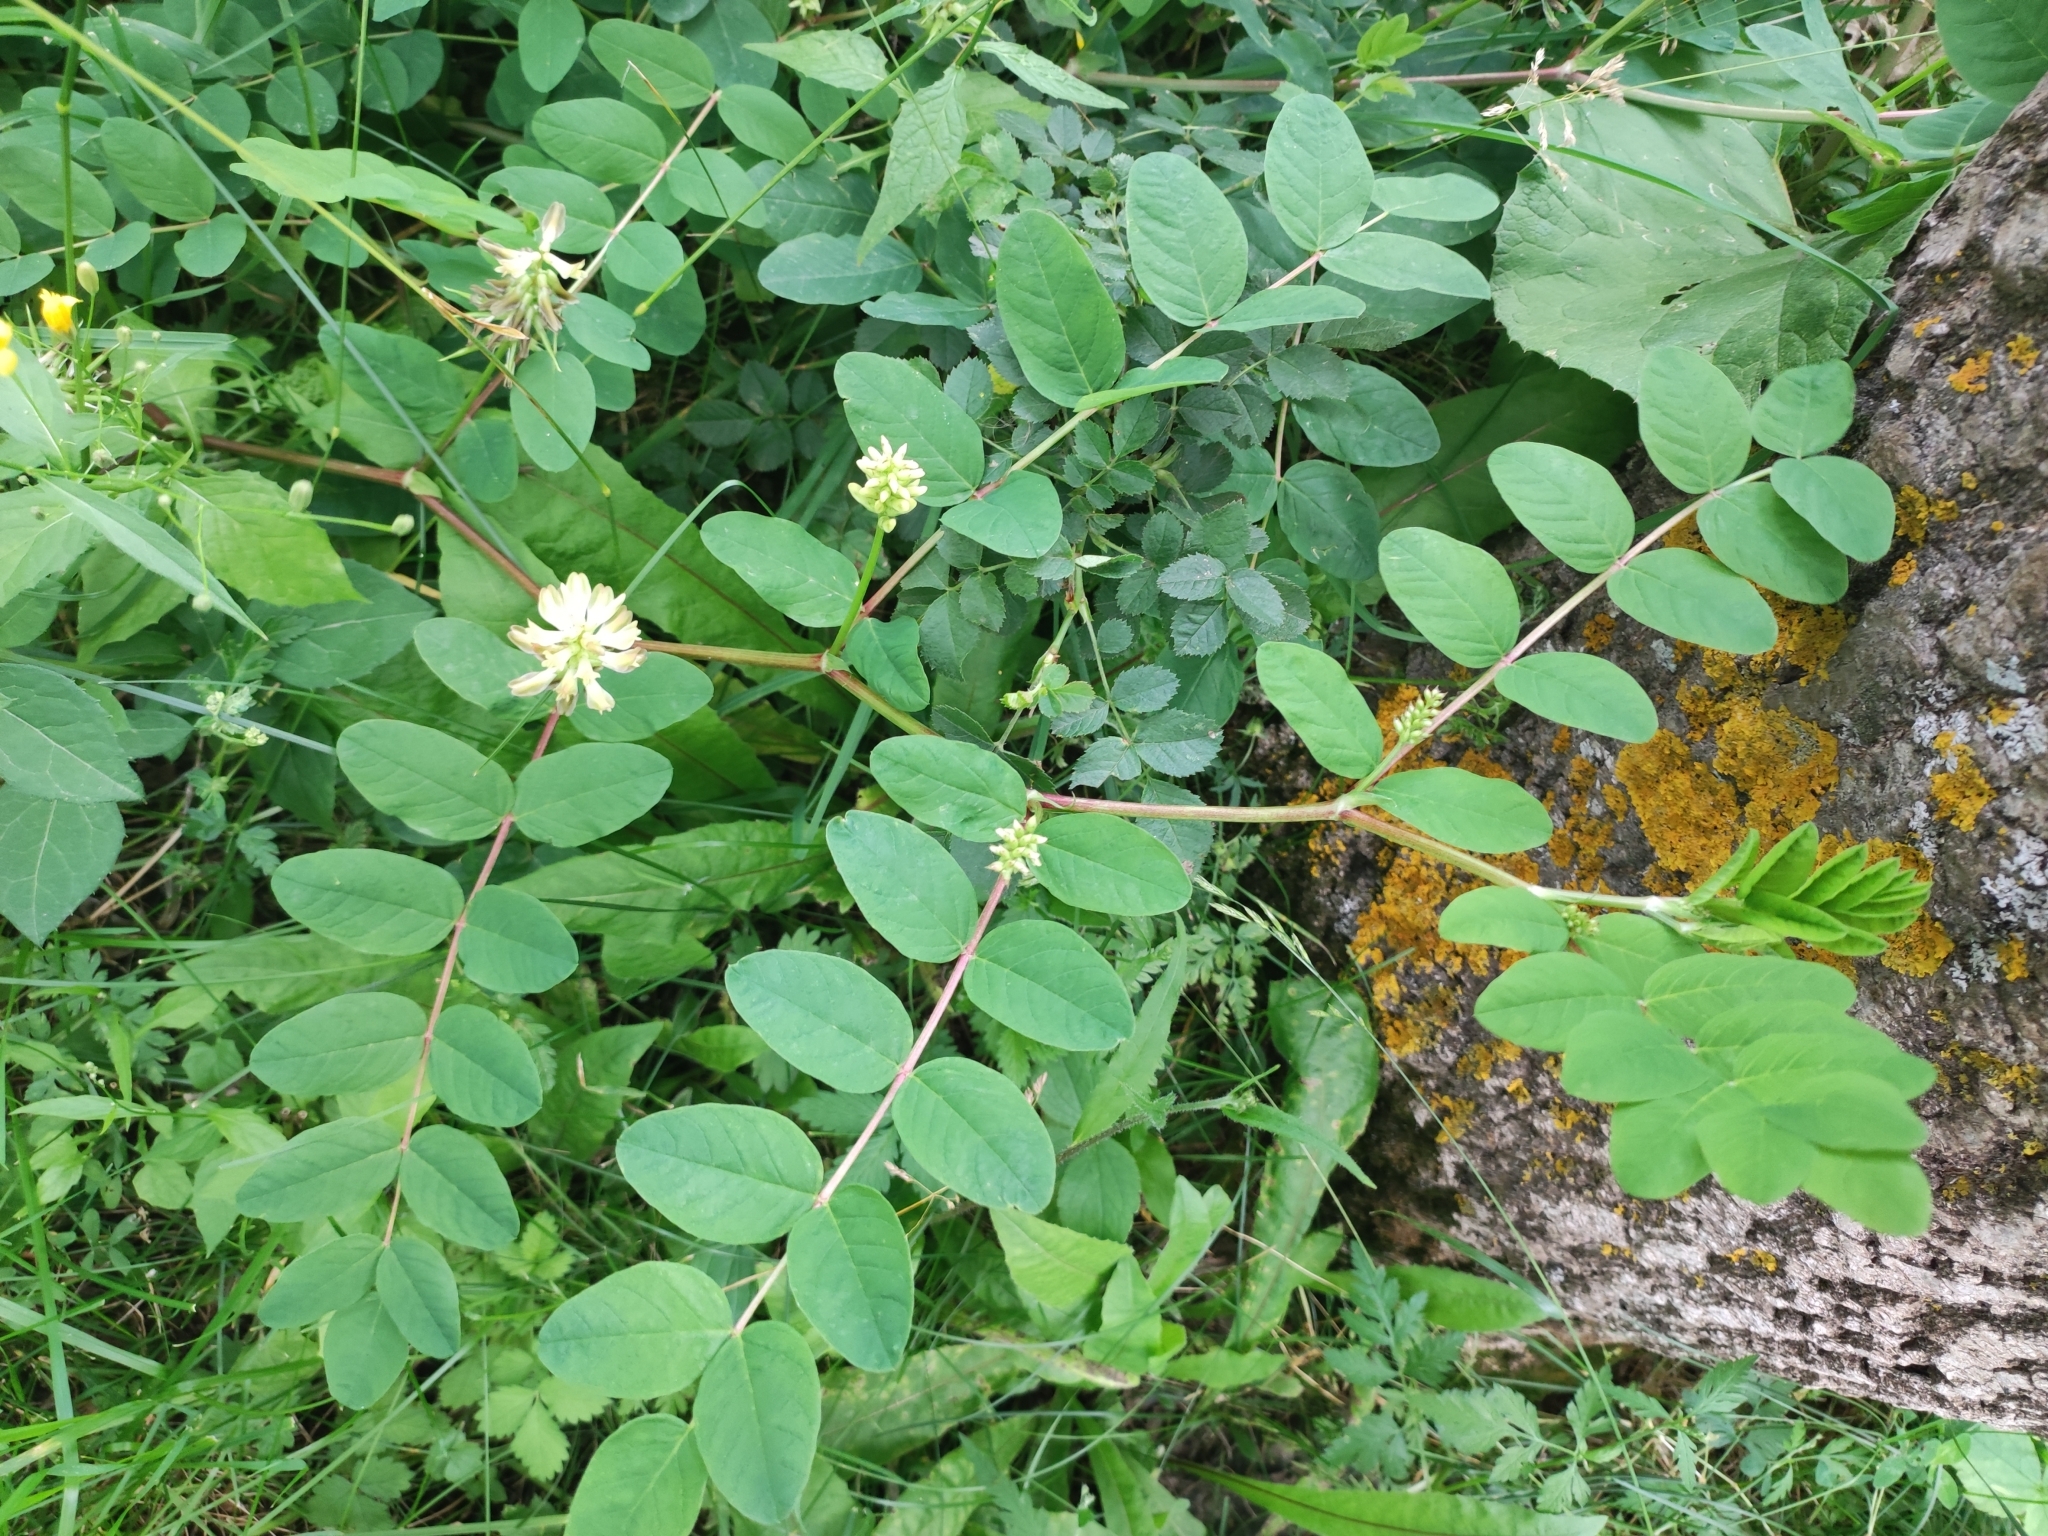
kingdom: Plantae
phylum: Tracheophyta
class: Magnoliopsida
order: Fabales
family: Fabaceae
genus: Astragalus
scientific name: Astragalus glycyphyllos
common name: Wild liquorice
